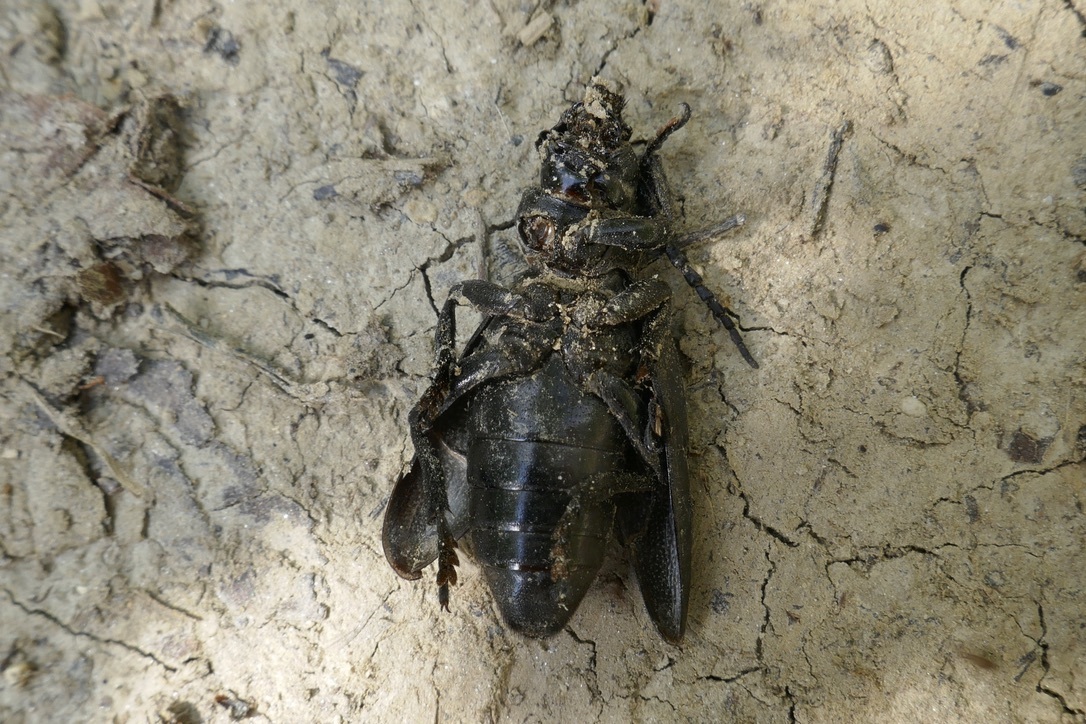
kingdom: Animalia
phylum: Arthropoda
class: Insecta
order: Coleoptera
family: Cerambycidae
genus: Dorcadion
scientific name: Dorcadion aethiops
